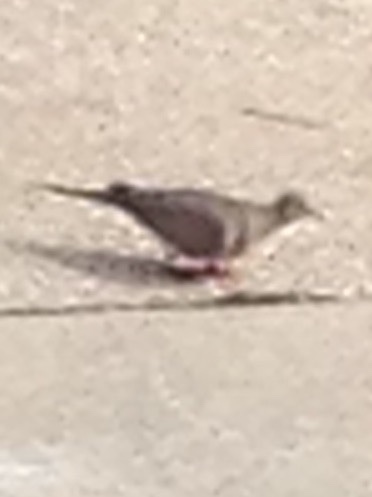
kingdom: Animalia
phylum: Chordata
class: Aves
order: Columbiformes
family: Columbidae
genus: Zenaida
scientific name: Zenaida macroura
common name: Mourning dove
